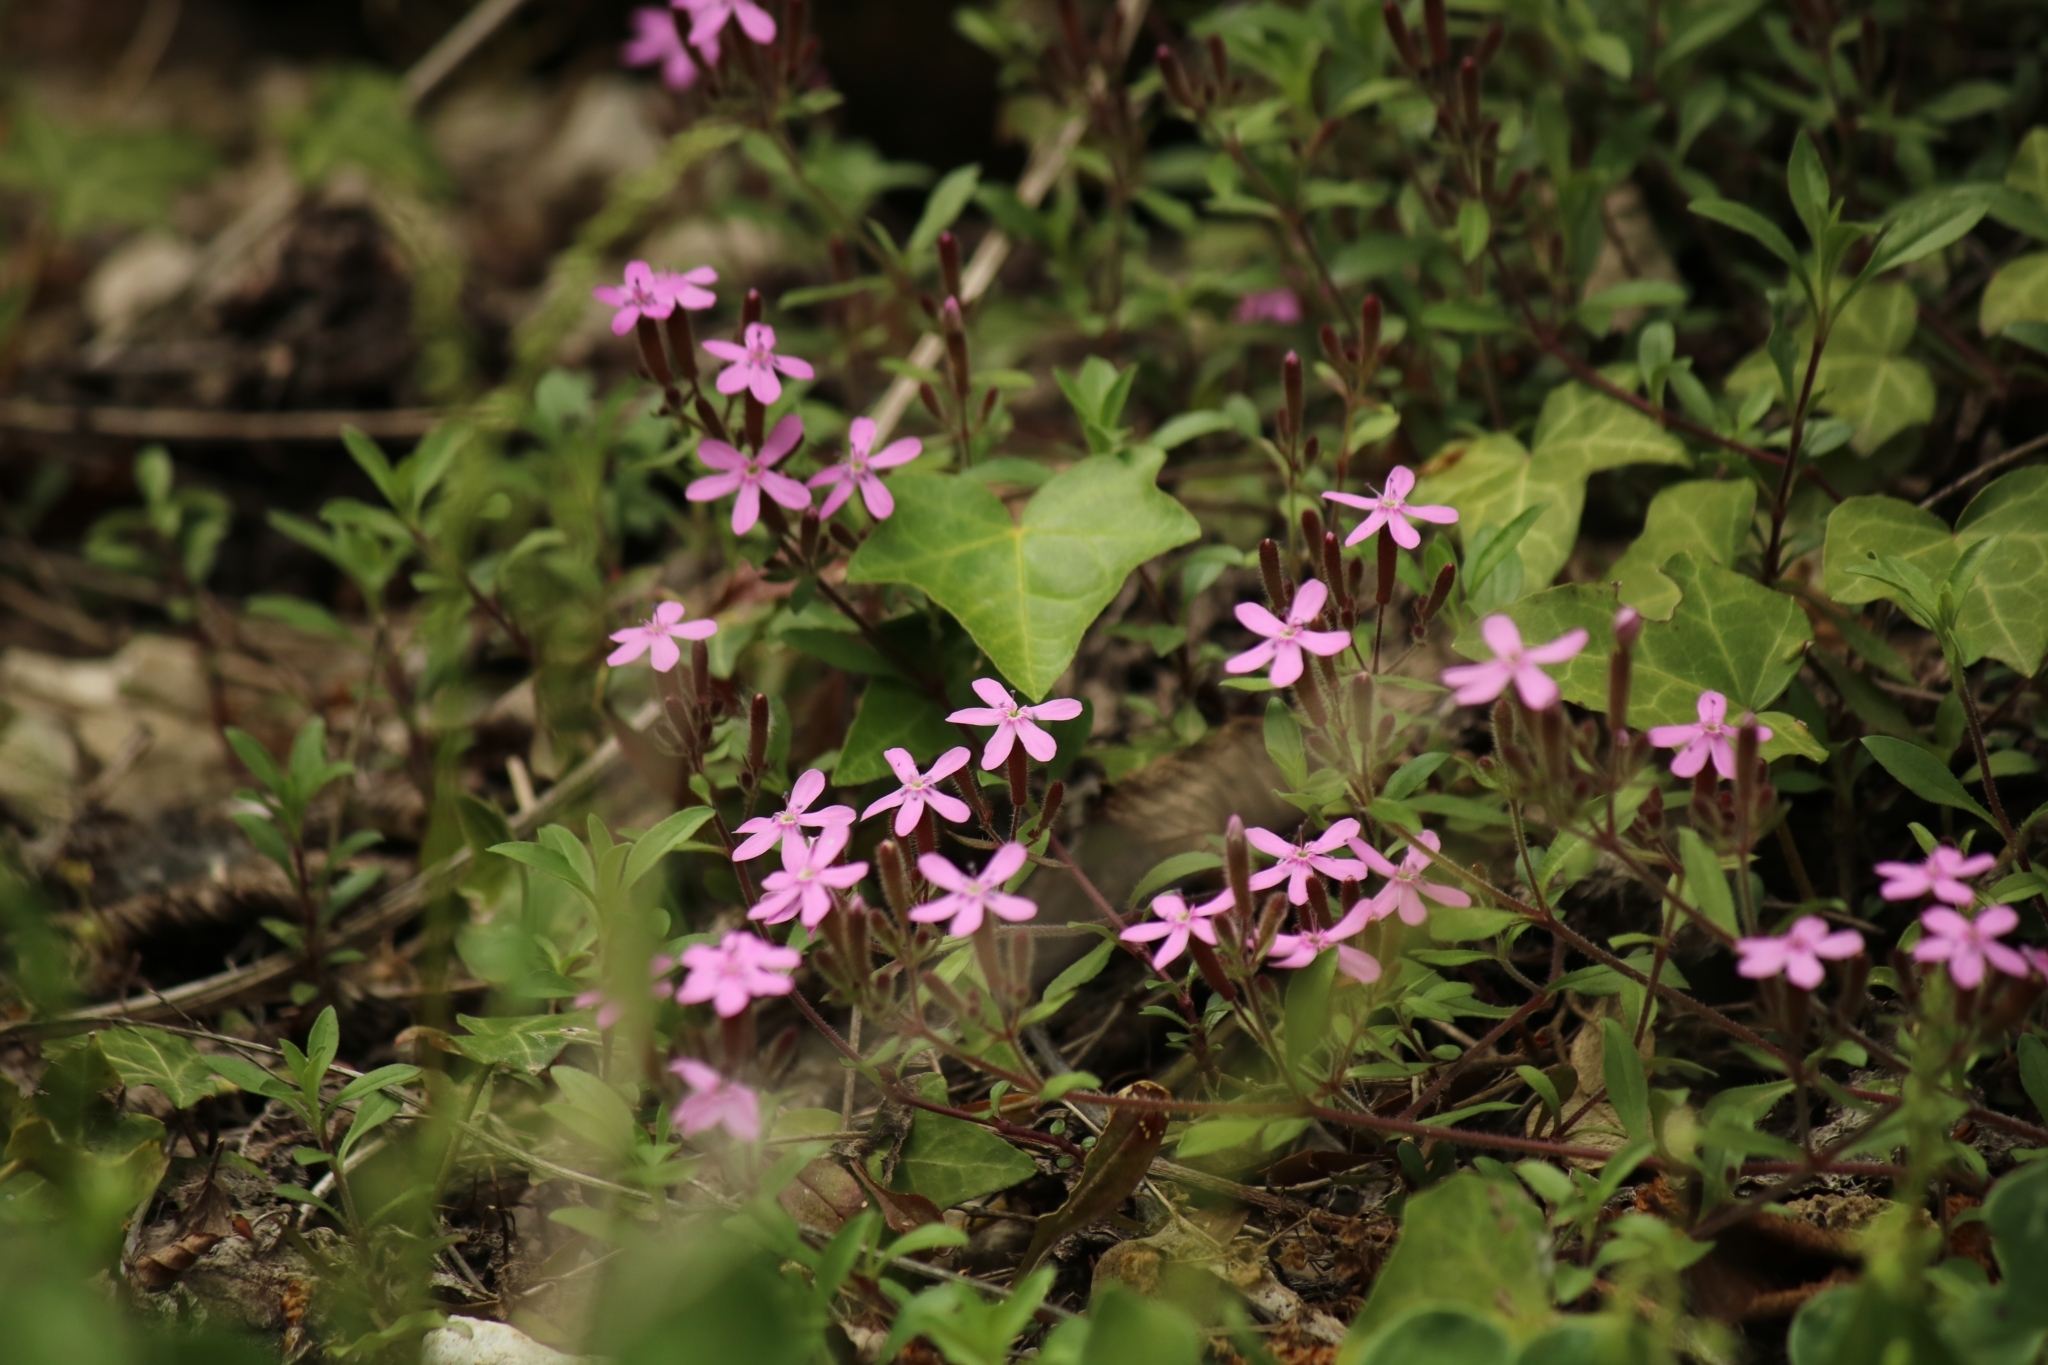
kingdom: Plantae
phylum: Tracheophyta
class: Magnoliopsida
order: Caryophyllales
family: Caryophyllaceae
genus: Saponaria
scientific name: Saponaria ocymoides
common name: Rock soapwort
